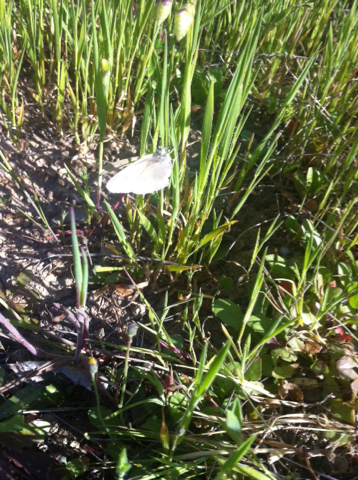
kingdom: Animalia
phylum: Arthropoda
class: Insecta
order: Lepidoptera
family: Nymphalidae
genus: Coenonympha
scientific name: Coenonympha california
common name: Common ringlet
